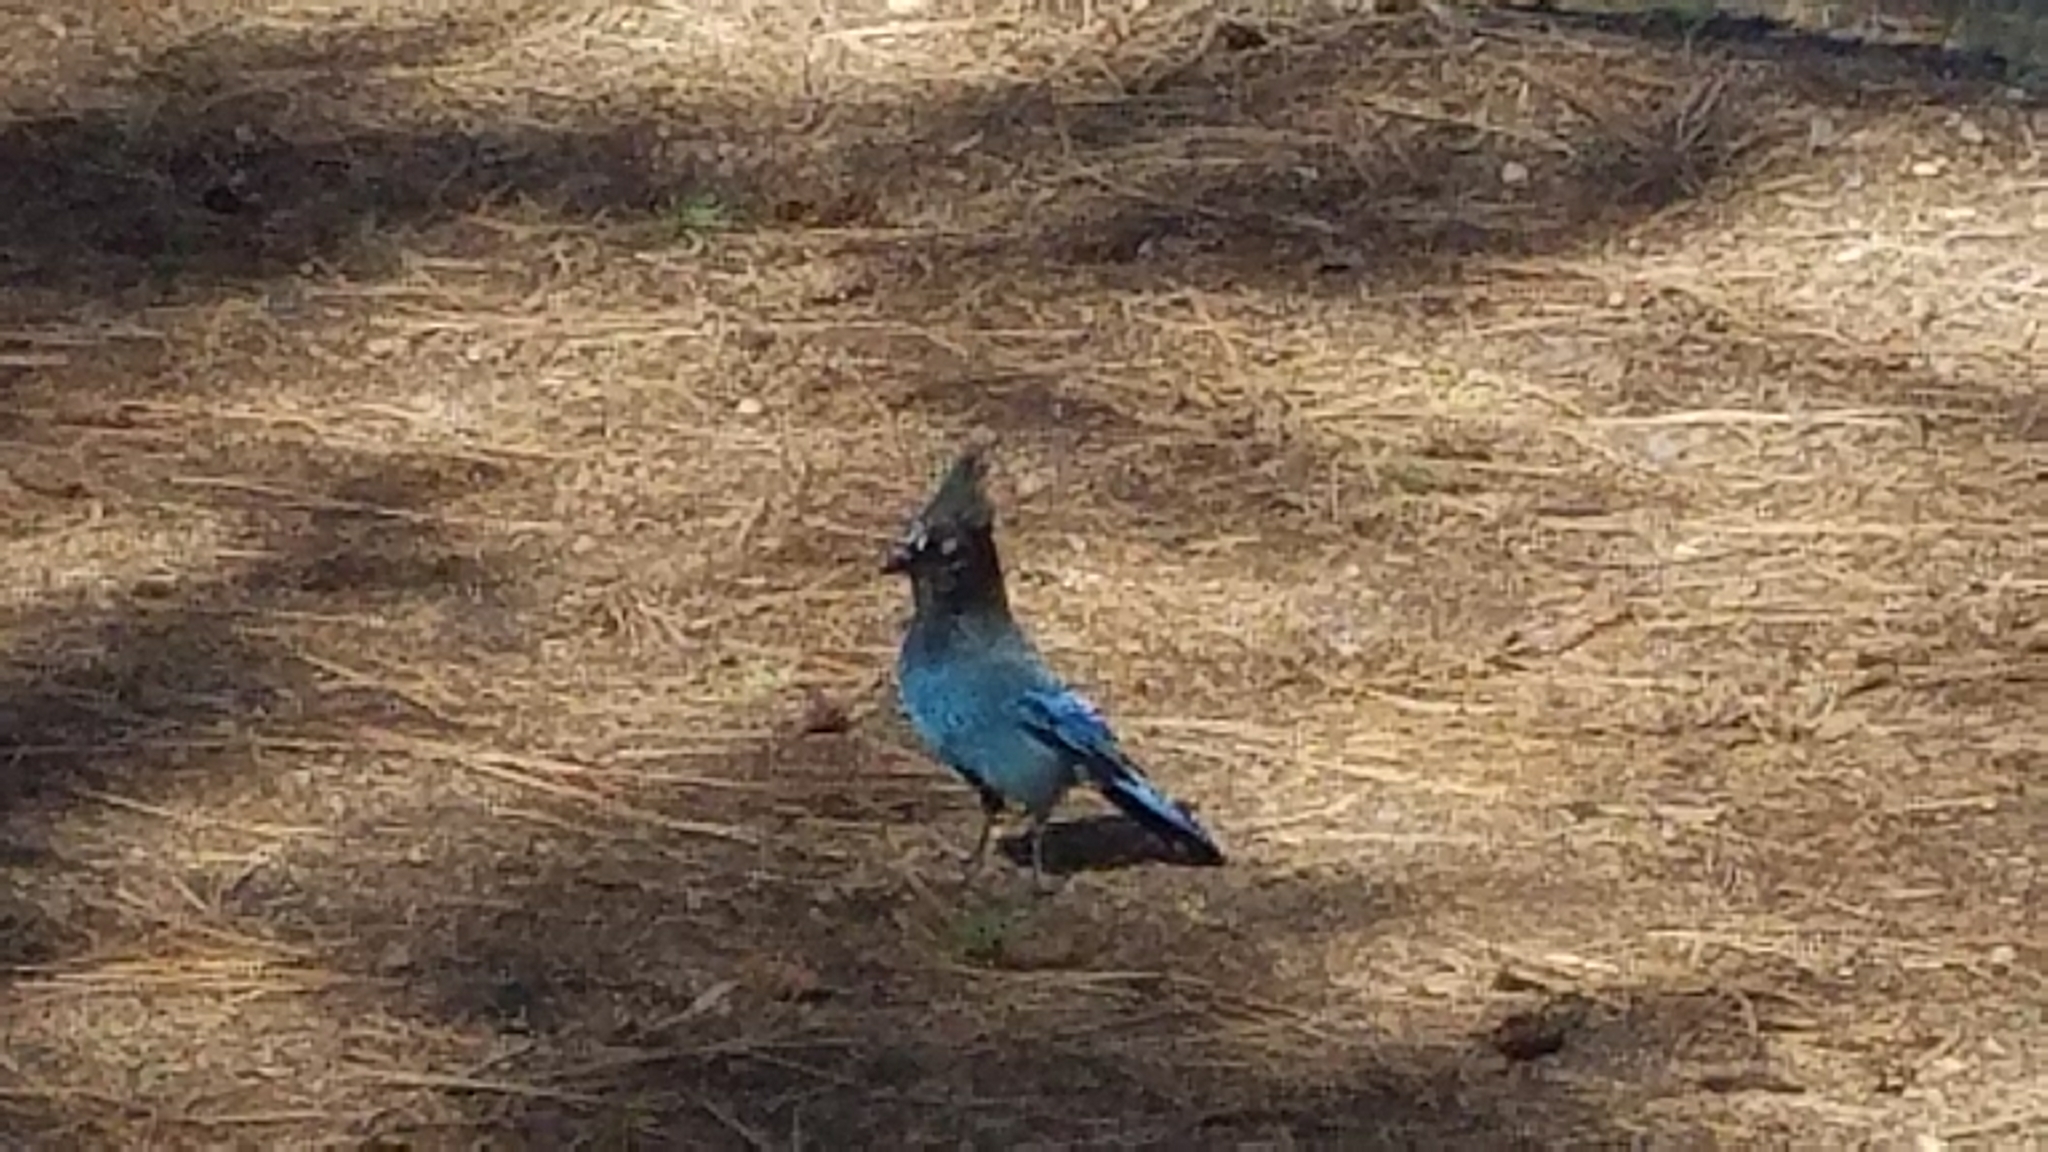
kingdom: Animalia
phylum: Chordata
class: Aves
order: Passeriformes
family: Corvidae
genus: Cyanocitta
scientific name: Cyanocitta stelleri
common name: Steller's jay
